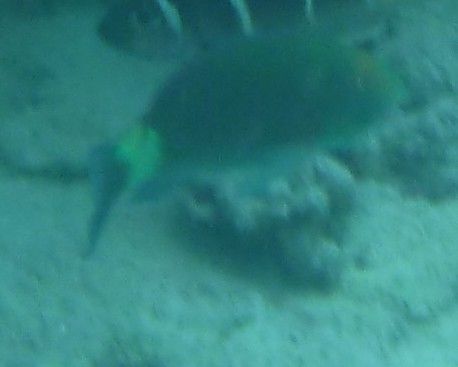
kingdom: Animalia
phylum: Chordata
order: Perciformes
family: Scaridae
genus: Chlorurus
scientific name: Chlorurus frontalis
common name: Reefcrest parrotfish
